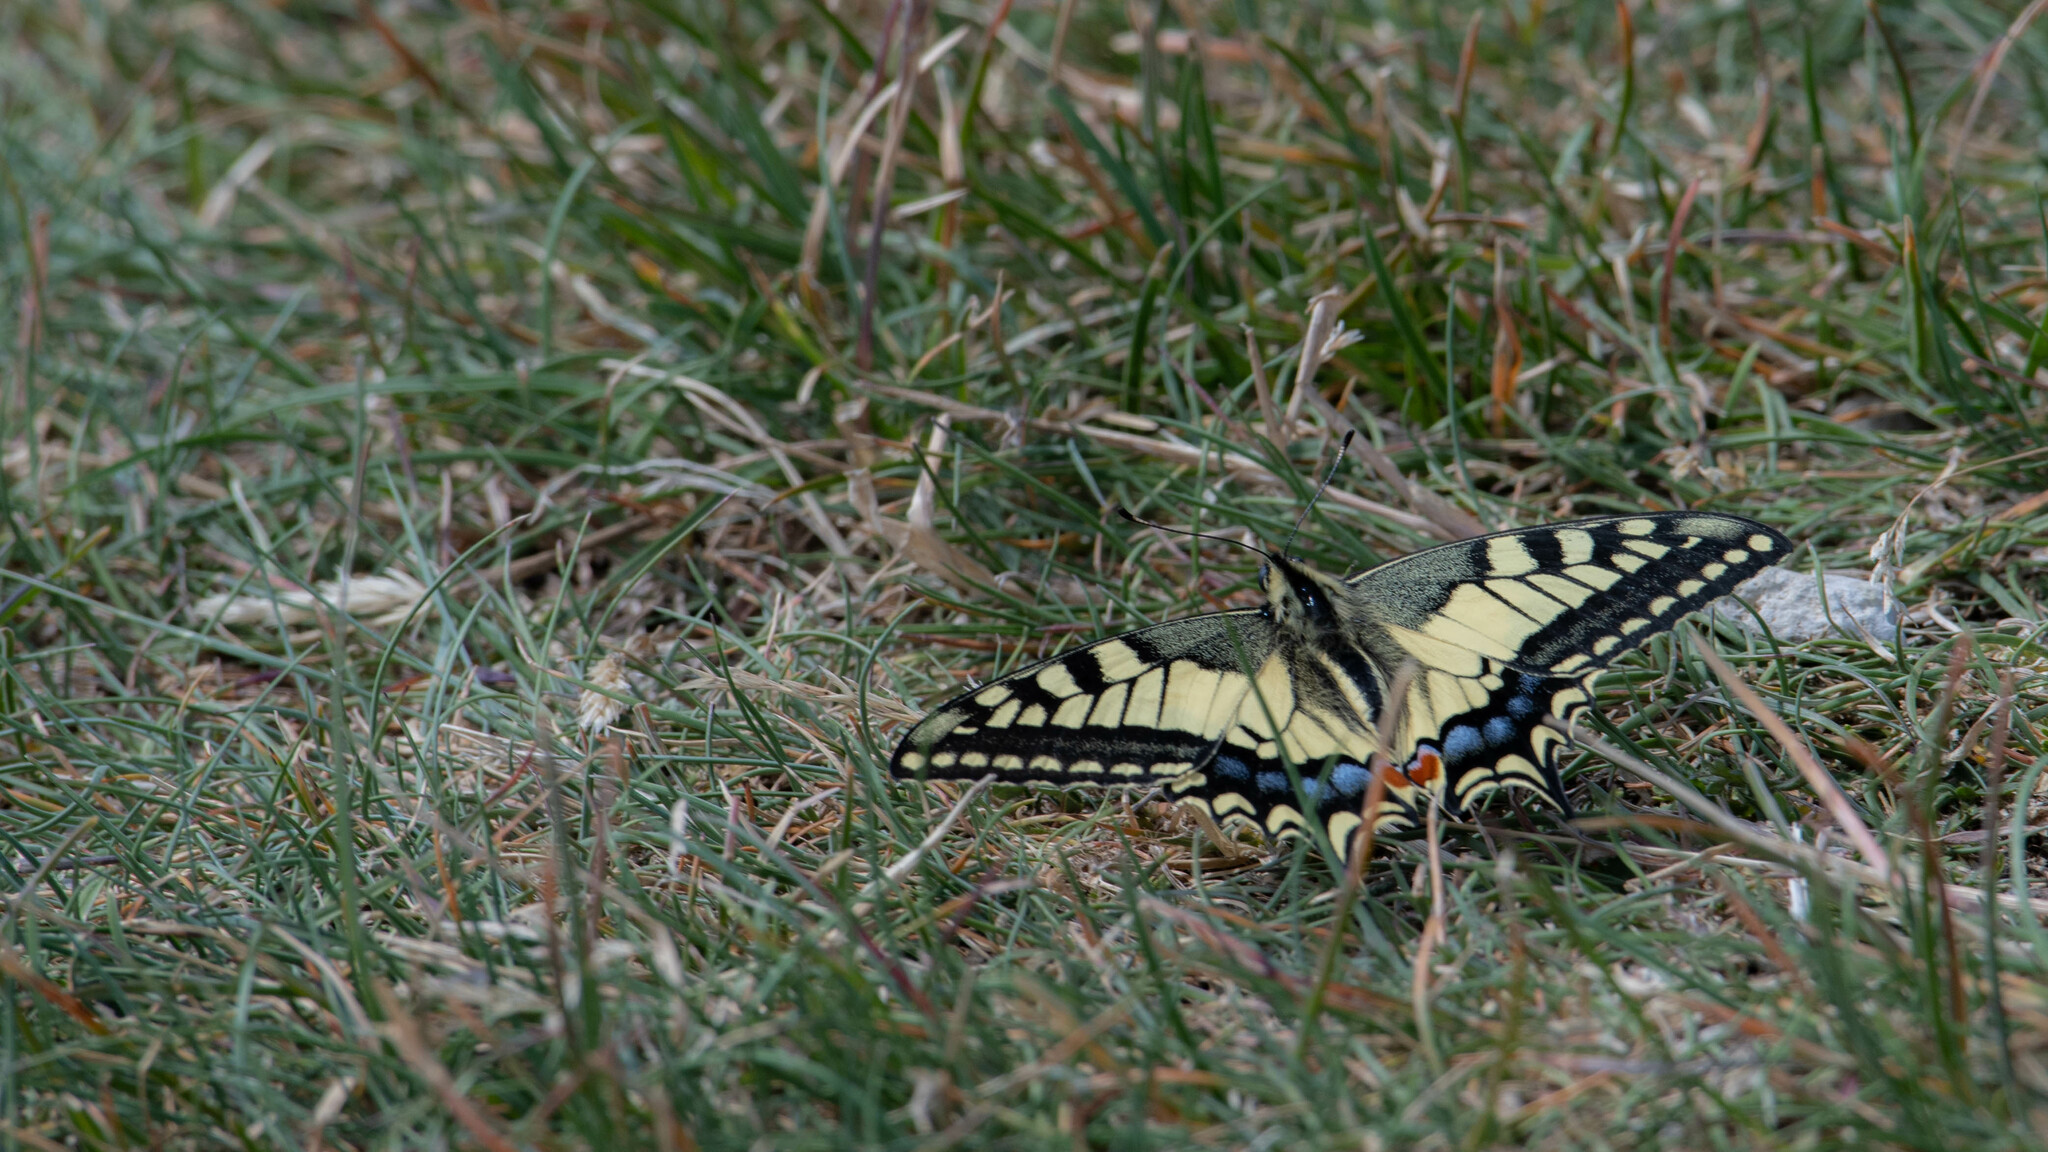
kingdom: Animalia
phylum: Arthropoda
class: Insecta
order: Lepidoptera
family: Papilionidae
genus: Papilio
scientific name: Papilio machaon
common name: Swallowtail
